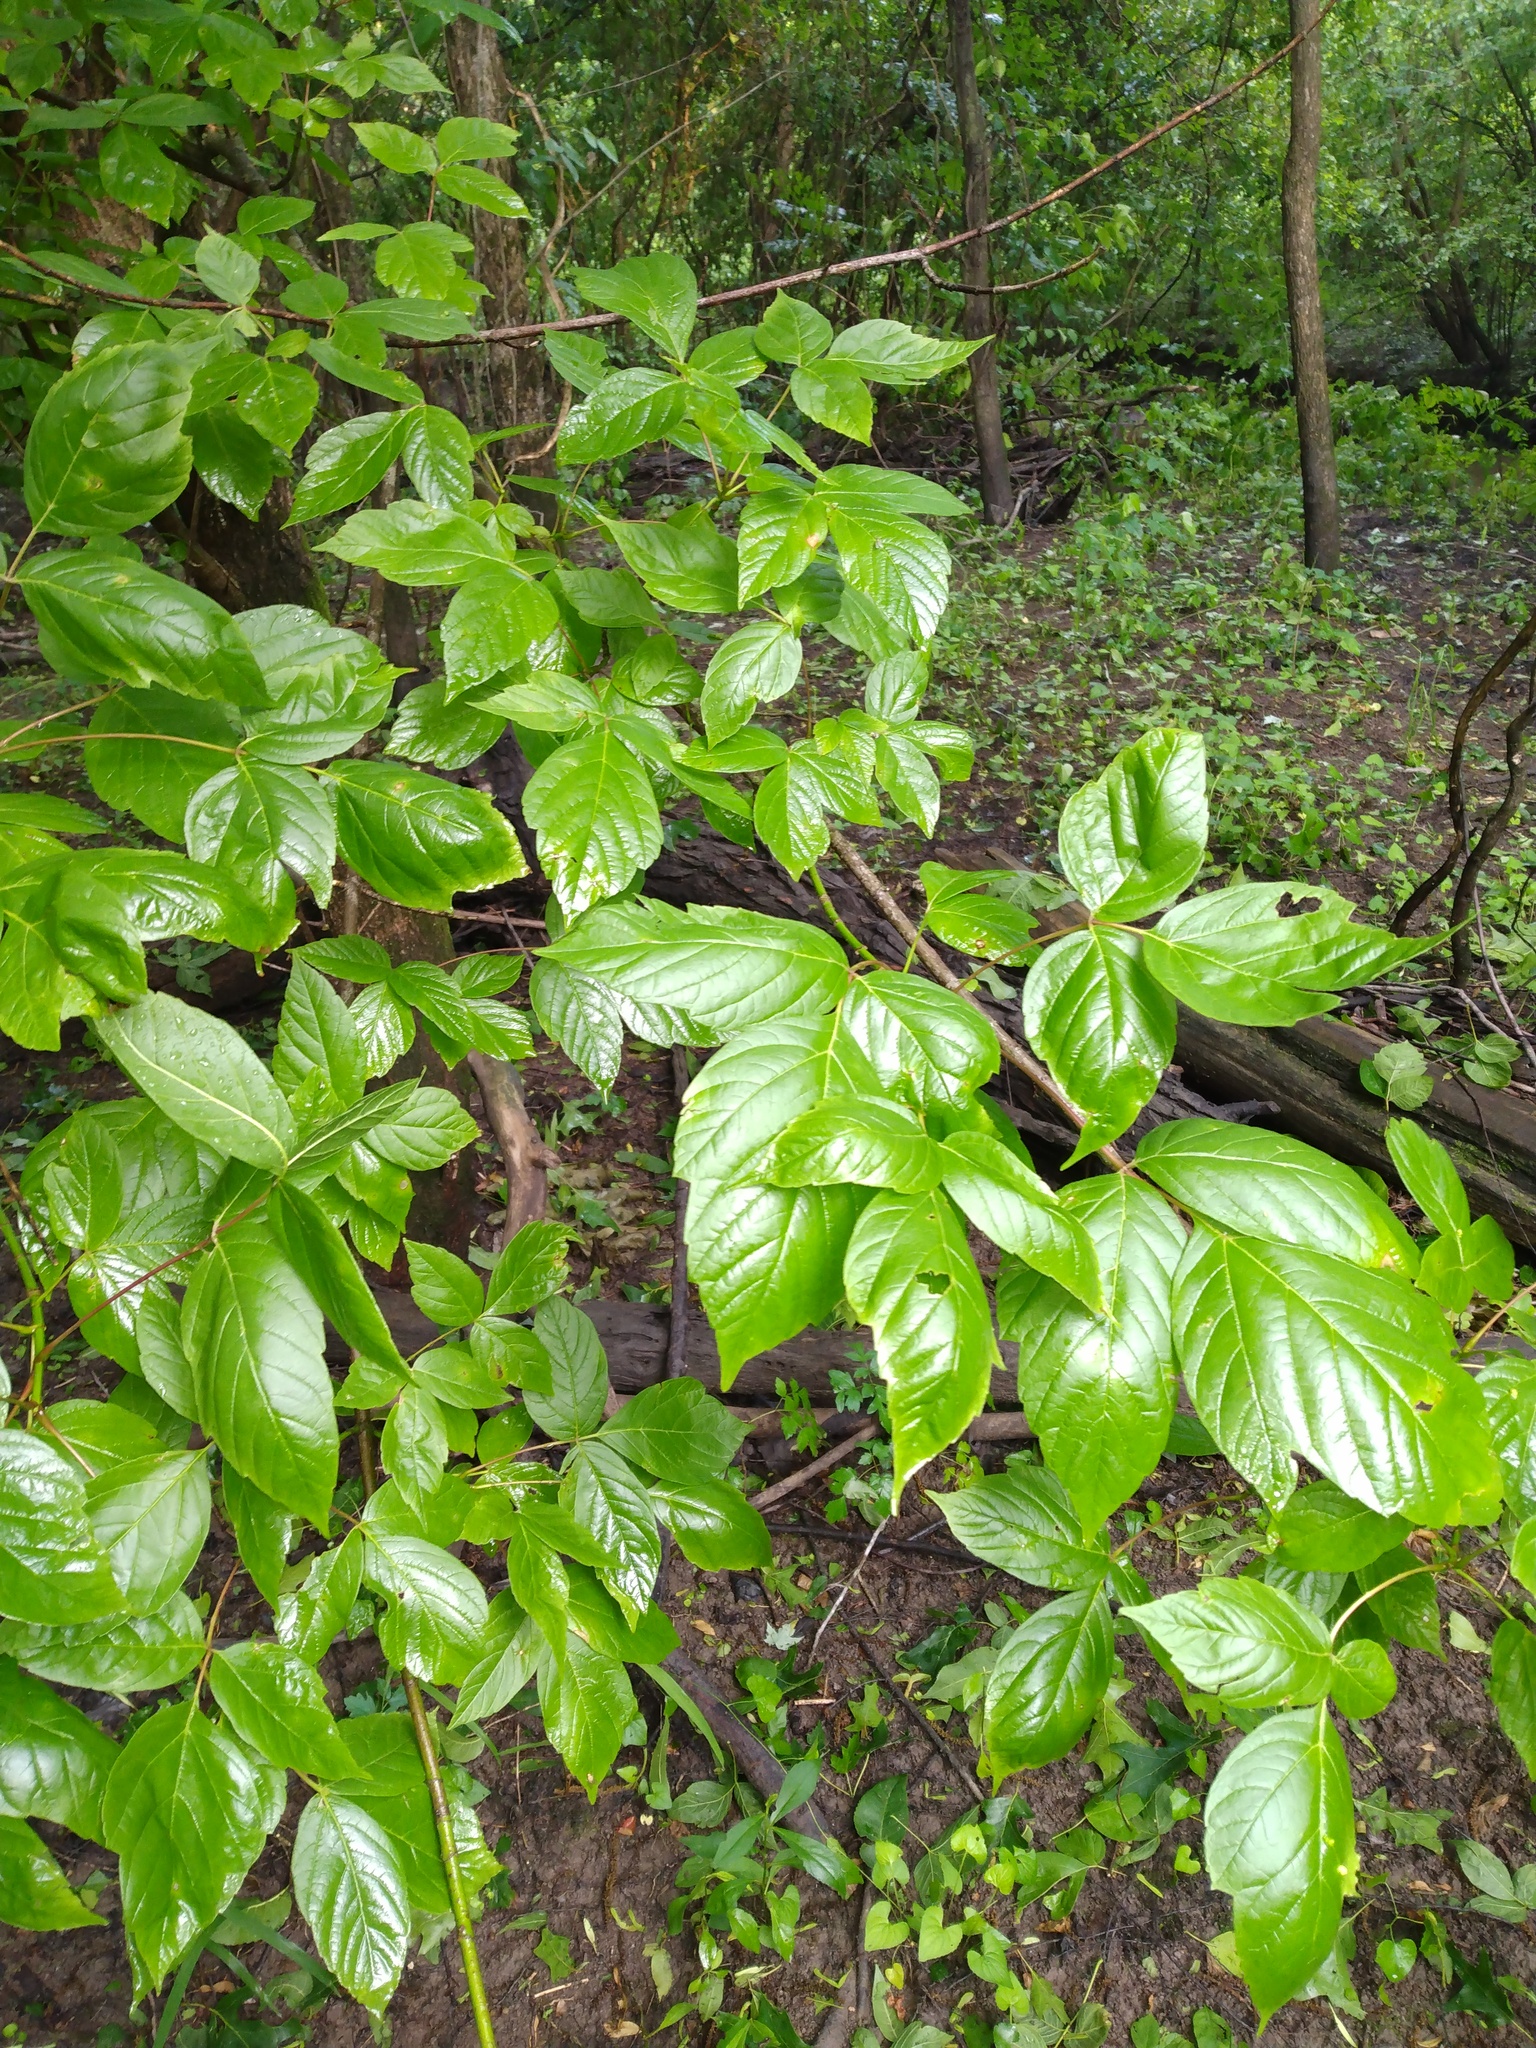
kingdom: Plantae
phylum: Tracheophyta
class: Magnoliopsida
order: Sapindales
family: Sapindaceae
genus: Acer
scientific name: Acer negundo
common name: Ashleaf maple
